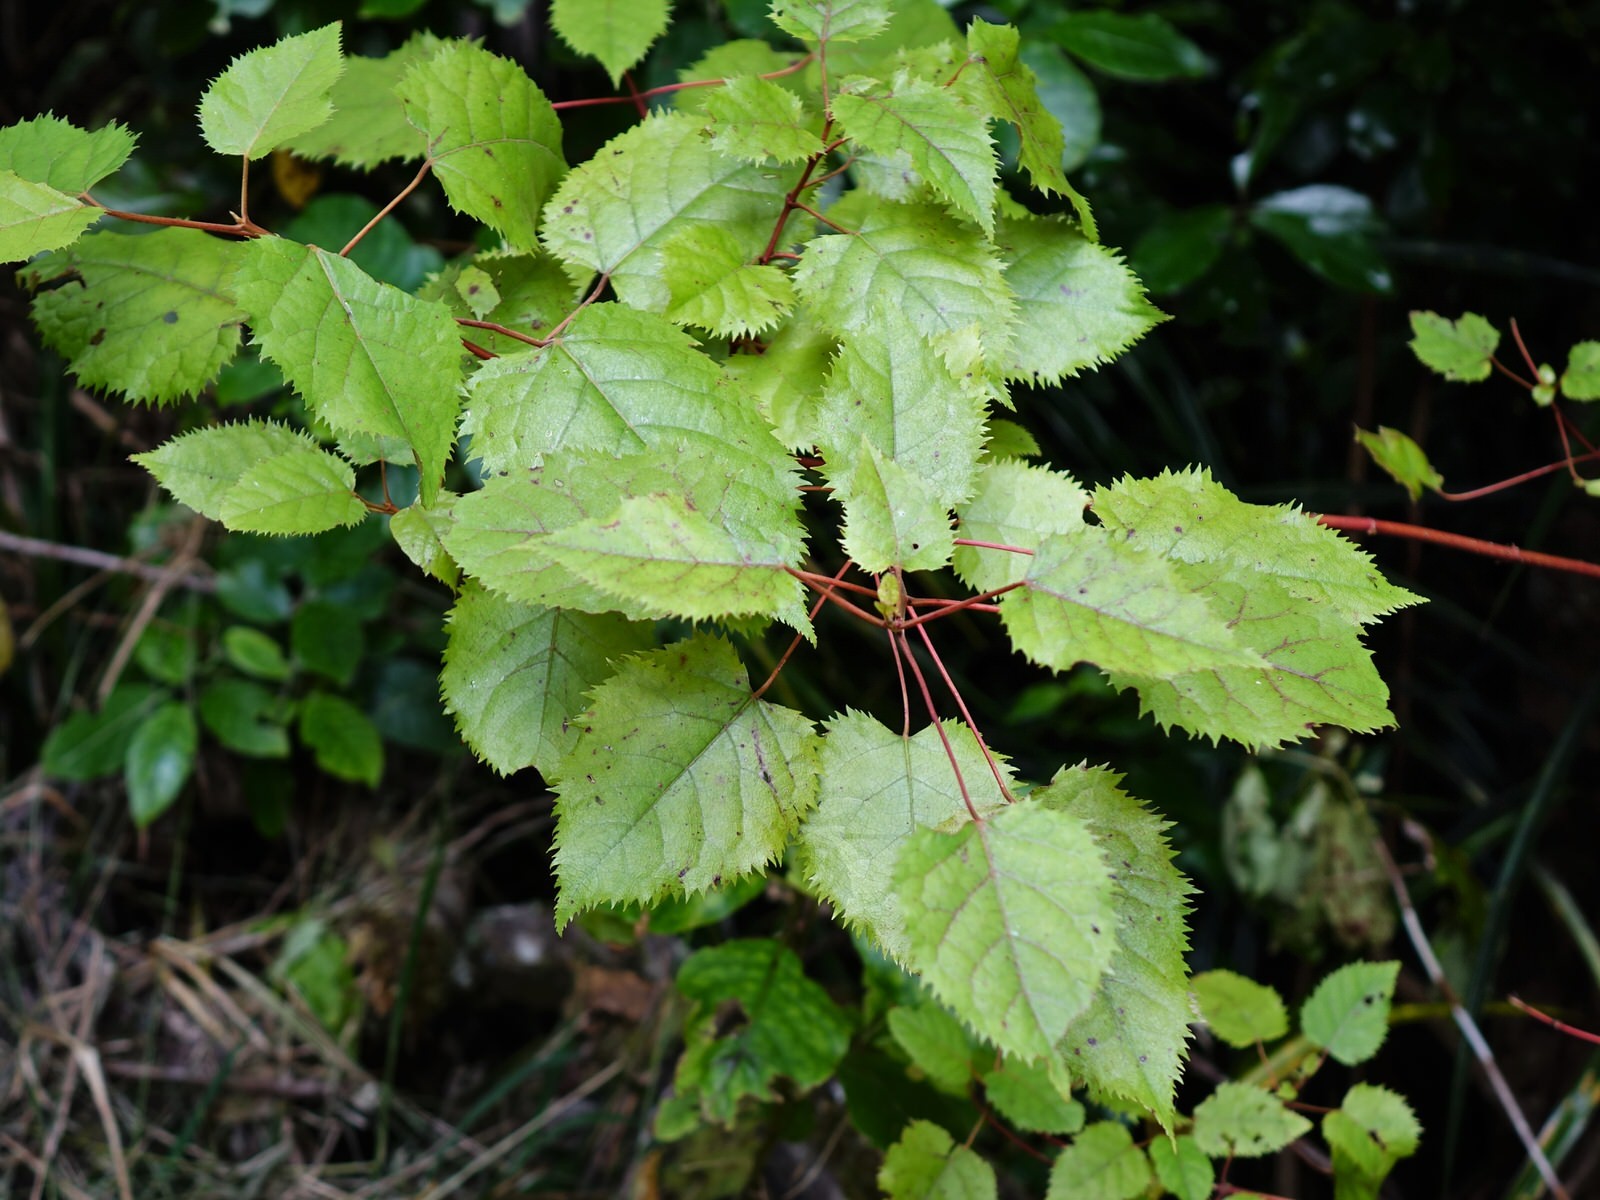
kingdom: Plantae
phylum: Tracheophyta
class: Magnoliopsida
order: Oxalidales
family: Elaeocarpaceae
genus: Aristotelia
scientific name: Aristotelia serrata
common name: New zealand wineberry
